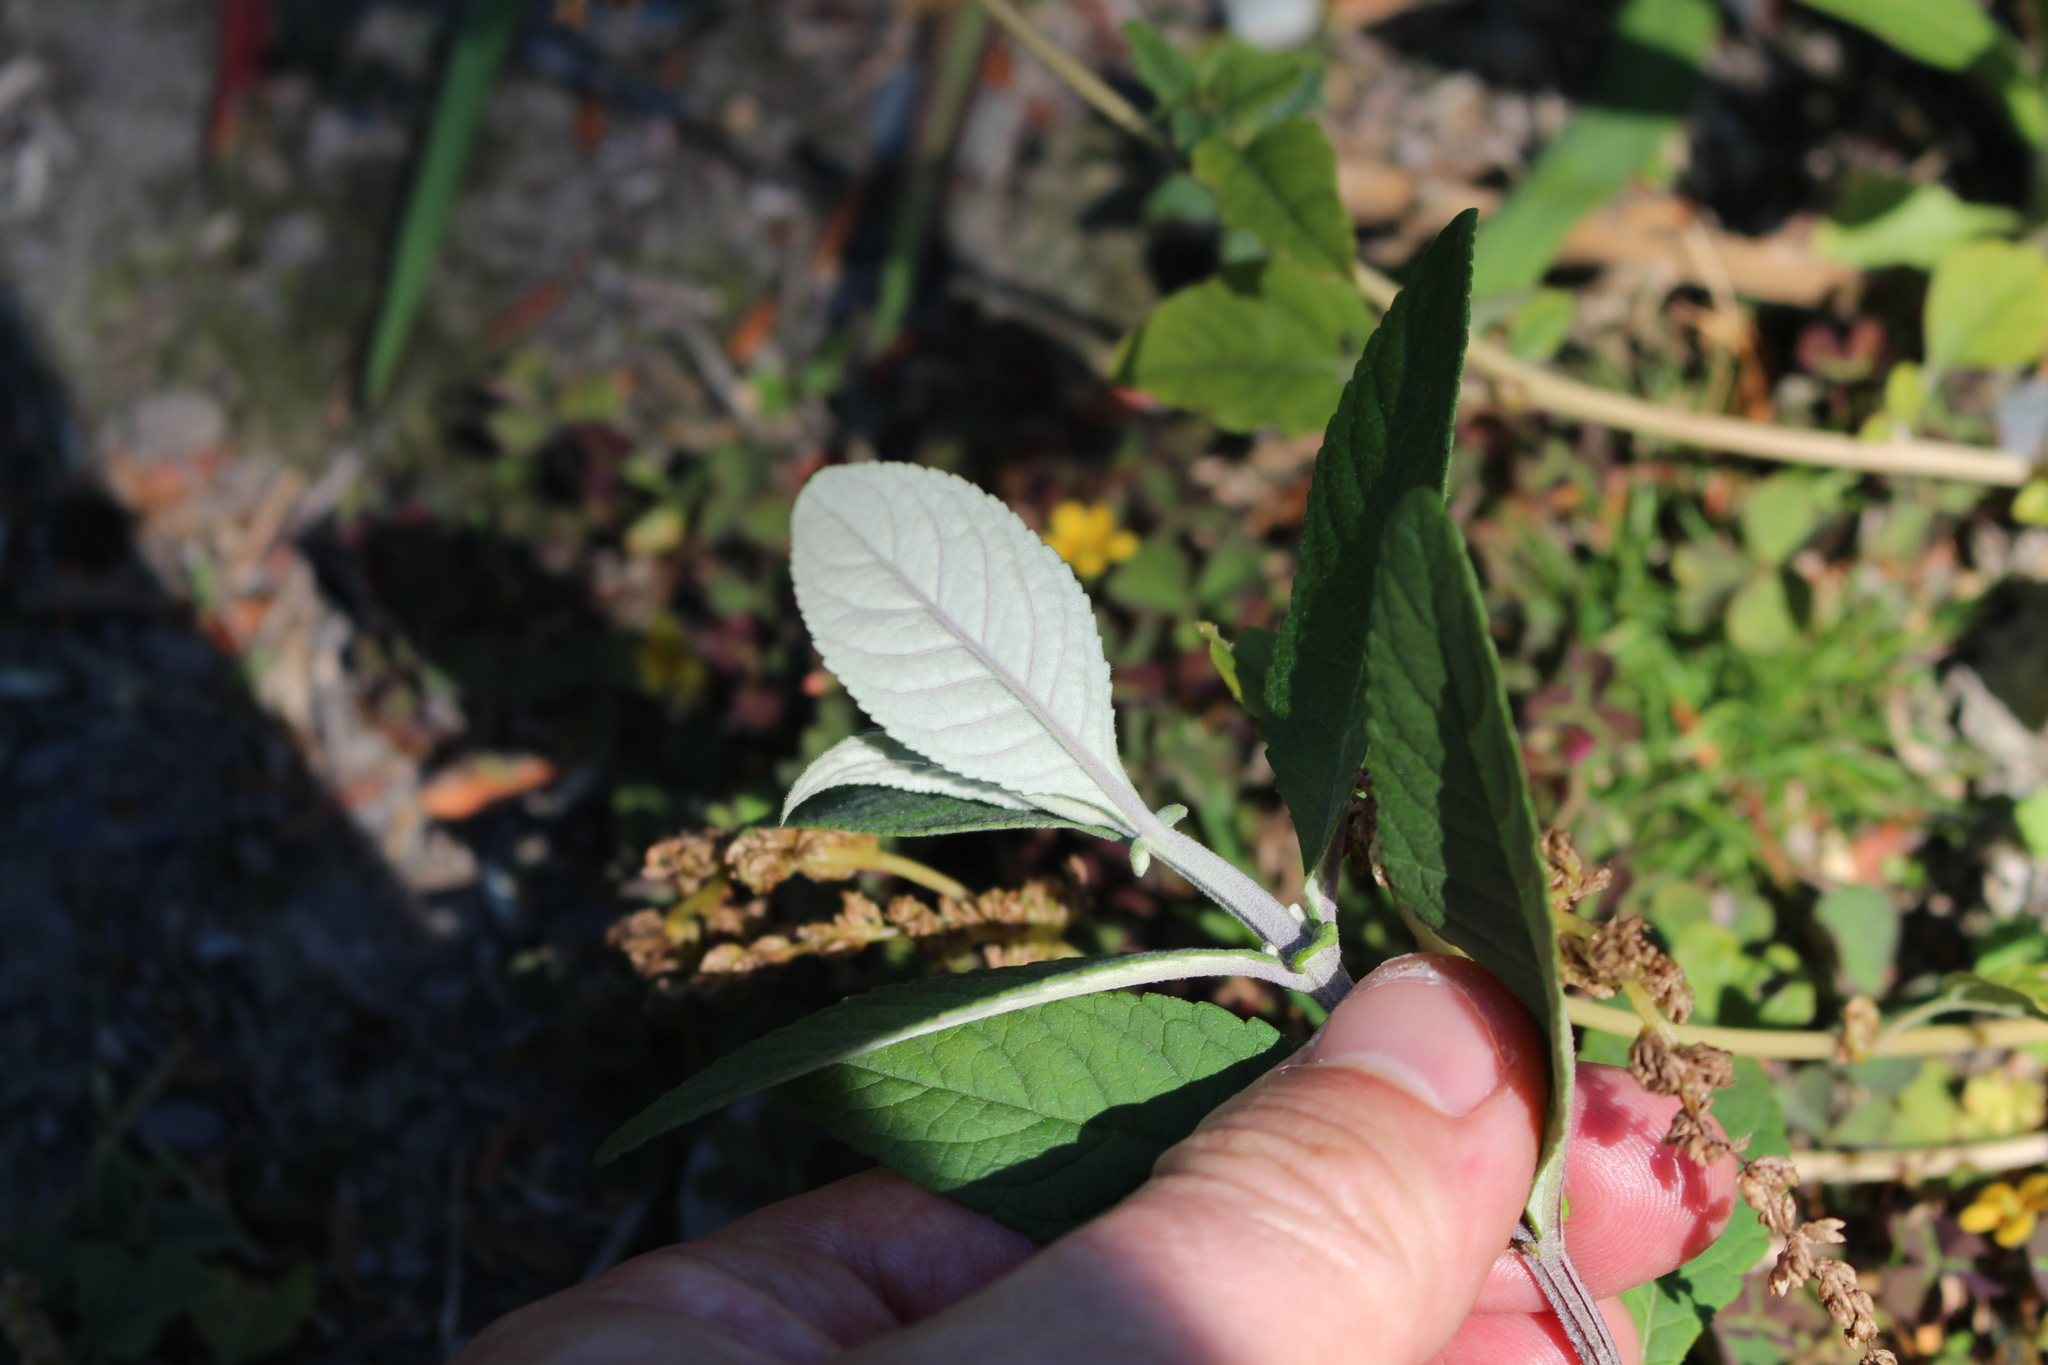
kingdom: Plantae
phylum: Tracheophyta
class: Magnoliopsida
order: Lamiales
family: Scrophulariaceae
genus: Buddleja
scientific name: Buddleja davidii
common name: Butterfly-bush
